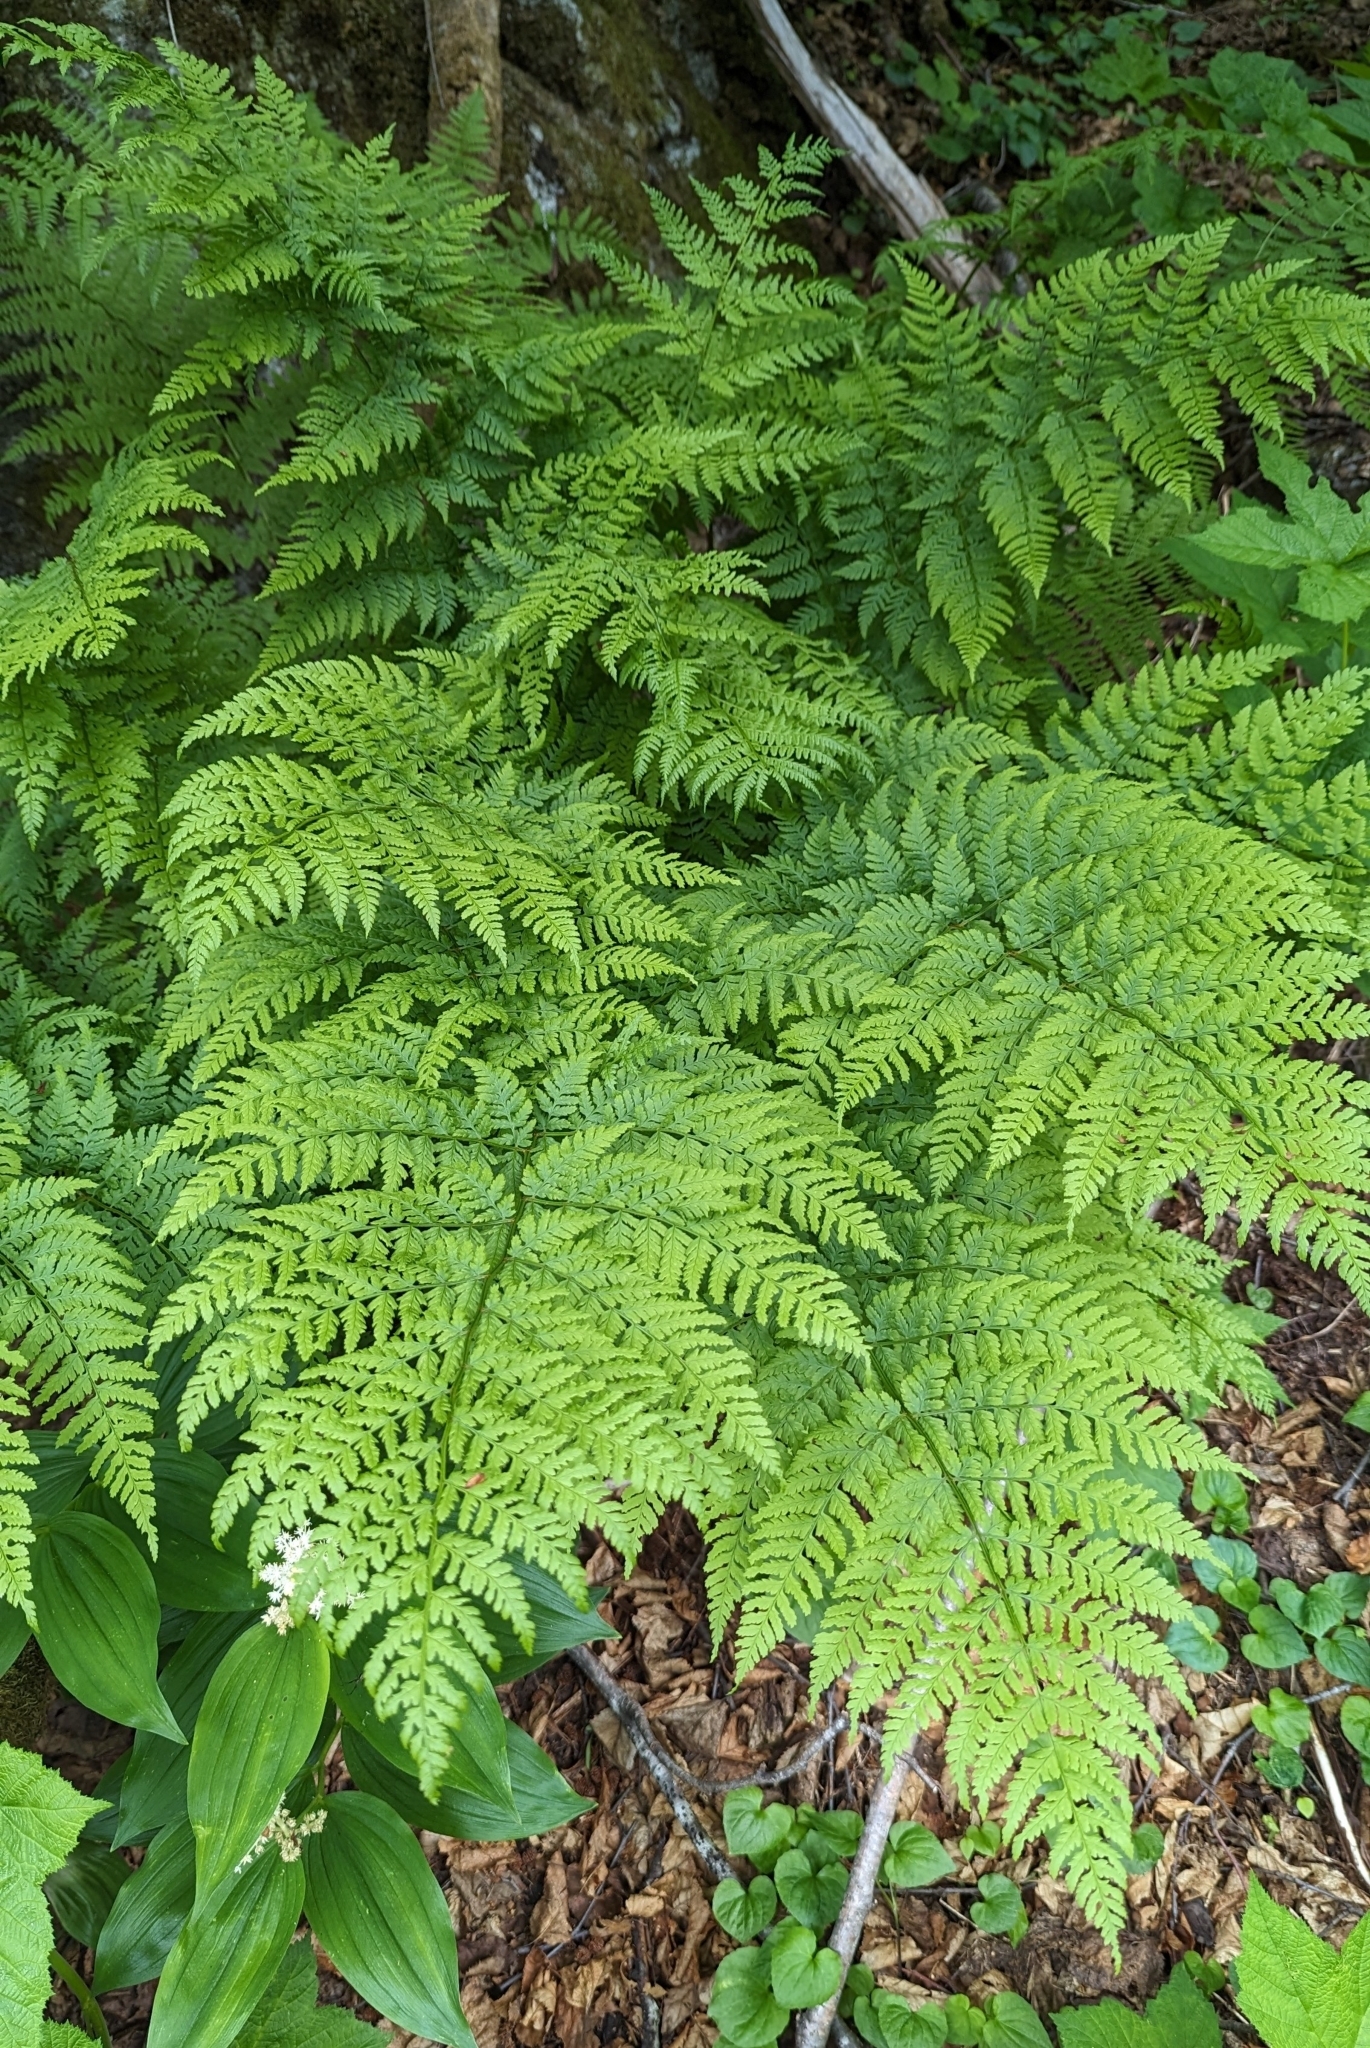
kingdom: Plantae
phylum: Tracheophyta
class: Polypodiopsida
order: Polypodiales
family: Dryopteridaceae
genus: Dryopteris
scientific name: Dryopteris expansa
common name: Northern buckler fern
